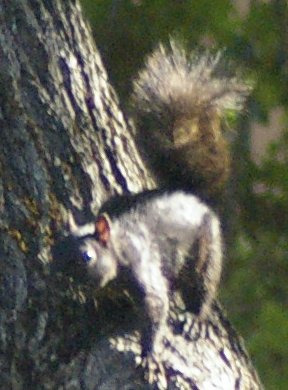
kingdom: Animalia
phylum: Chordata
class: Mammalia
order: Rodentia
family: Sciuridae
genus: Sciurus
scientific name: Sciurus carolinensis
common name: Eastern gray squirrel
